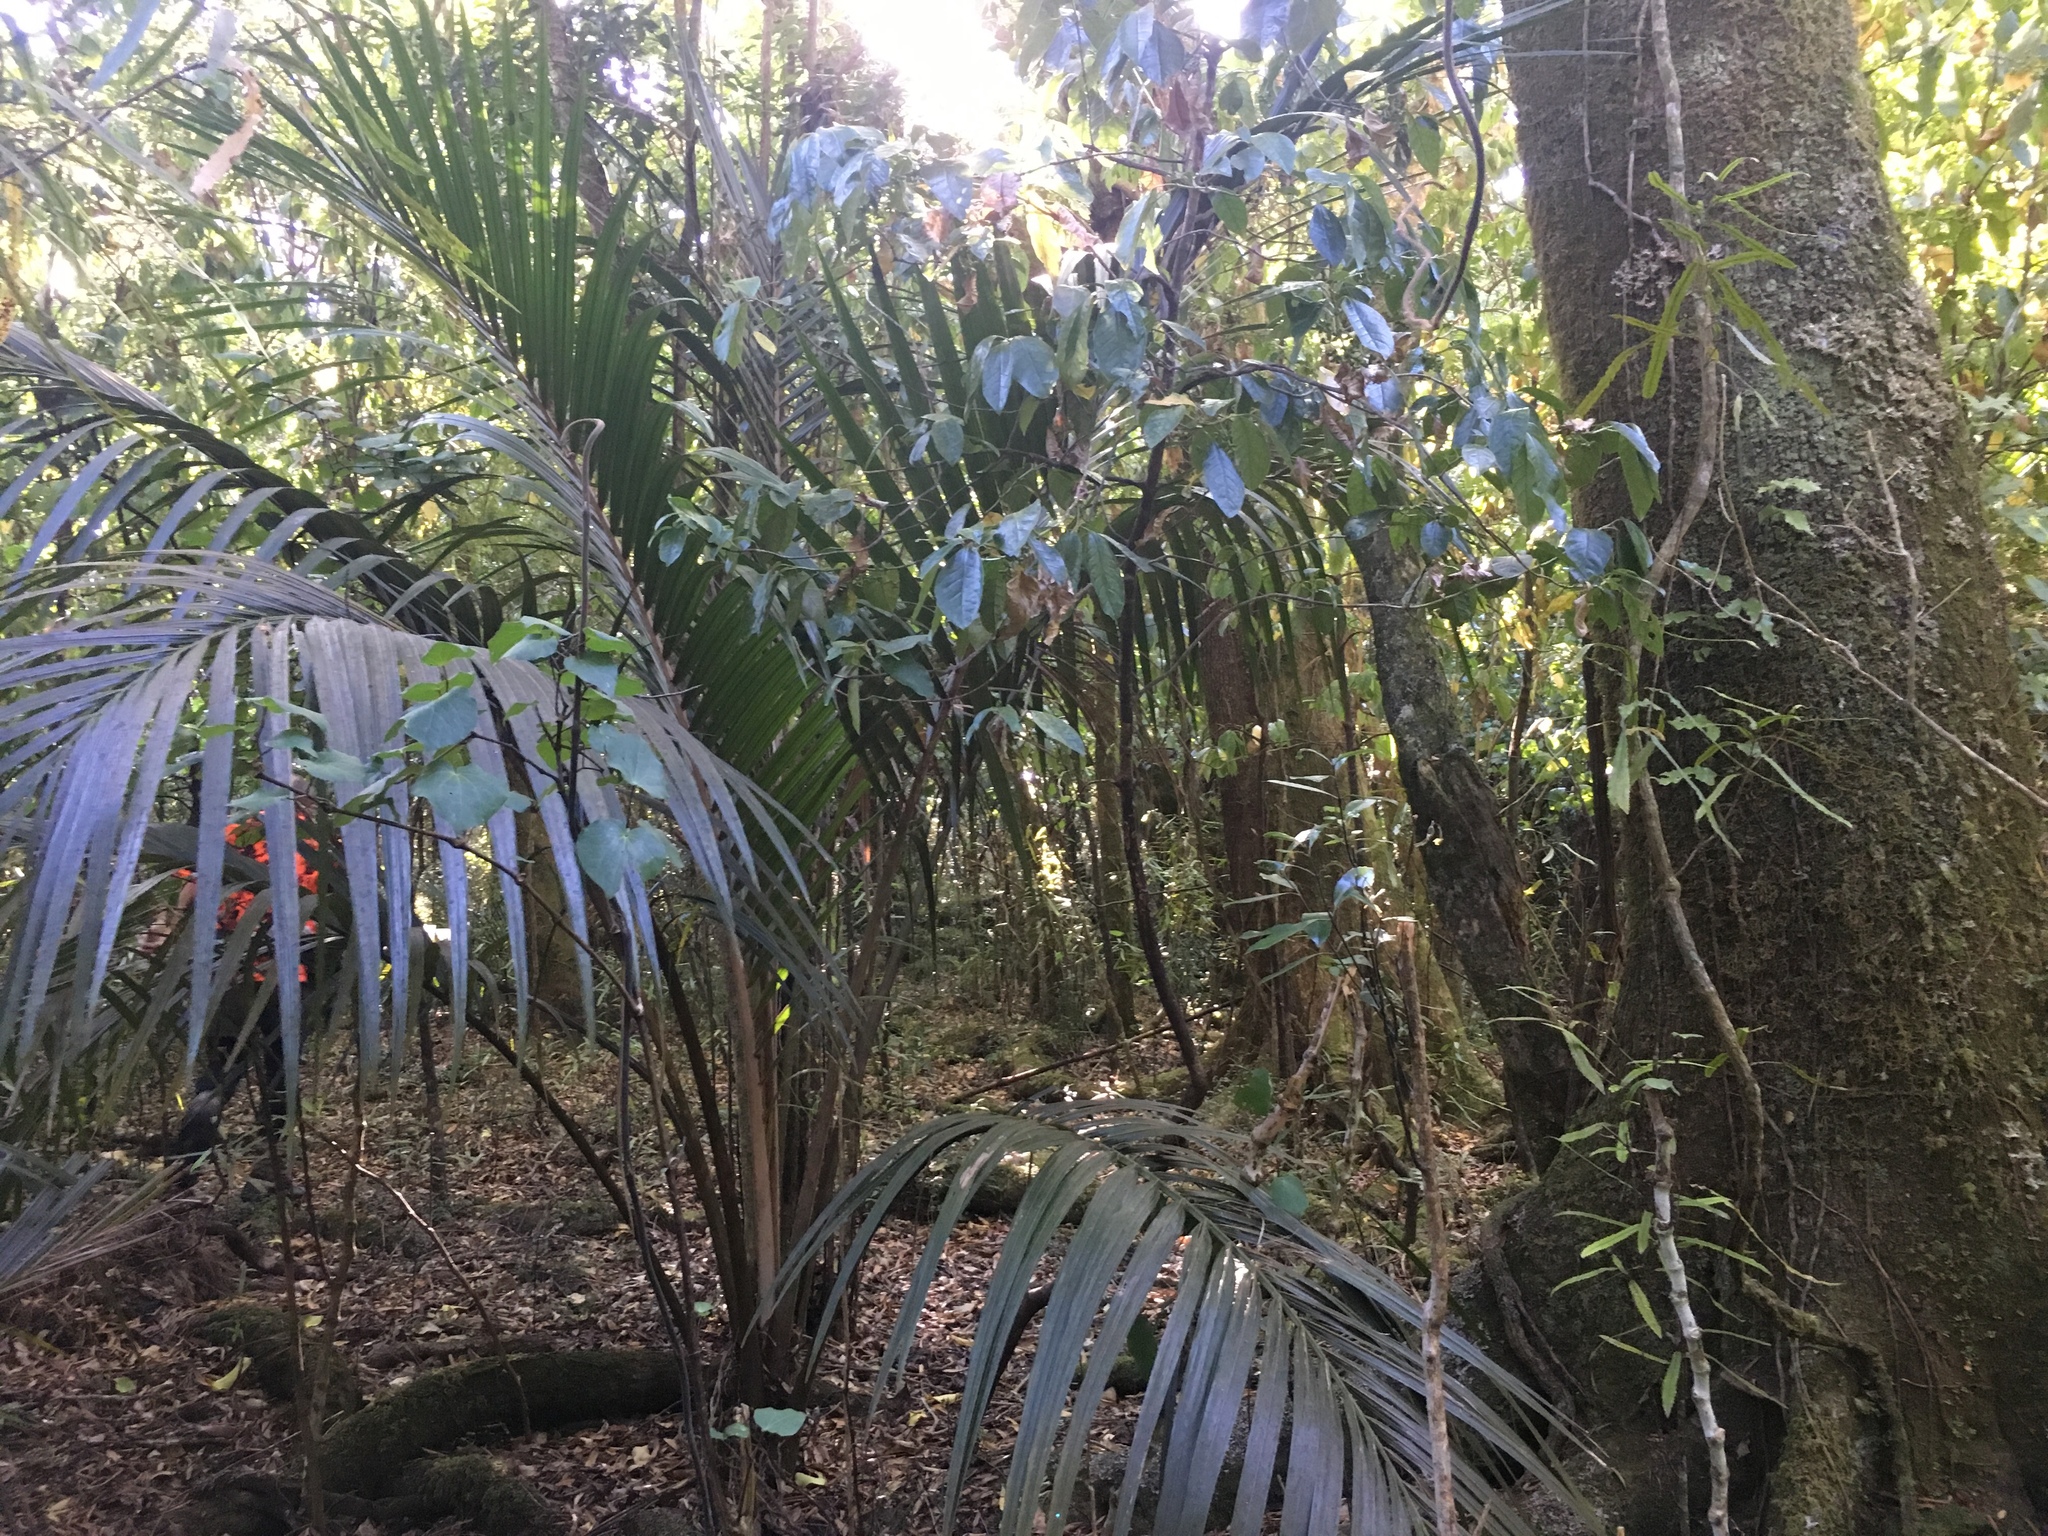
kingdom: Plantae
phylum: Tracheophyta
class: Liliopsida
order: Arecales
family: Arecaceae
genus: Rhopalostylis
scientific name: Rhopalostylis sapida
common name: Feather-duster palm
